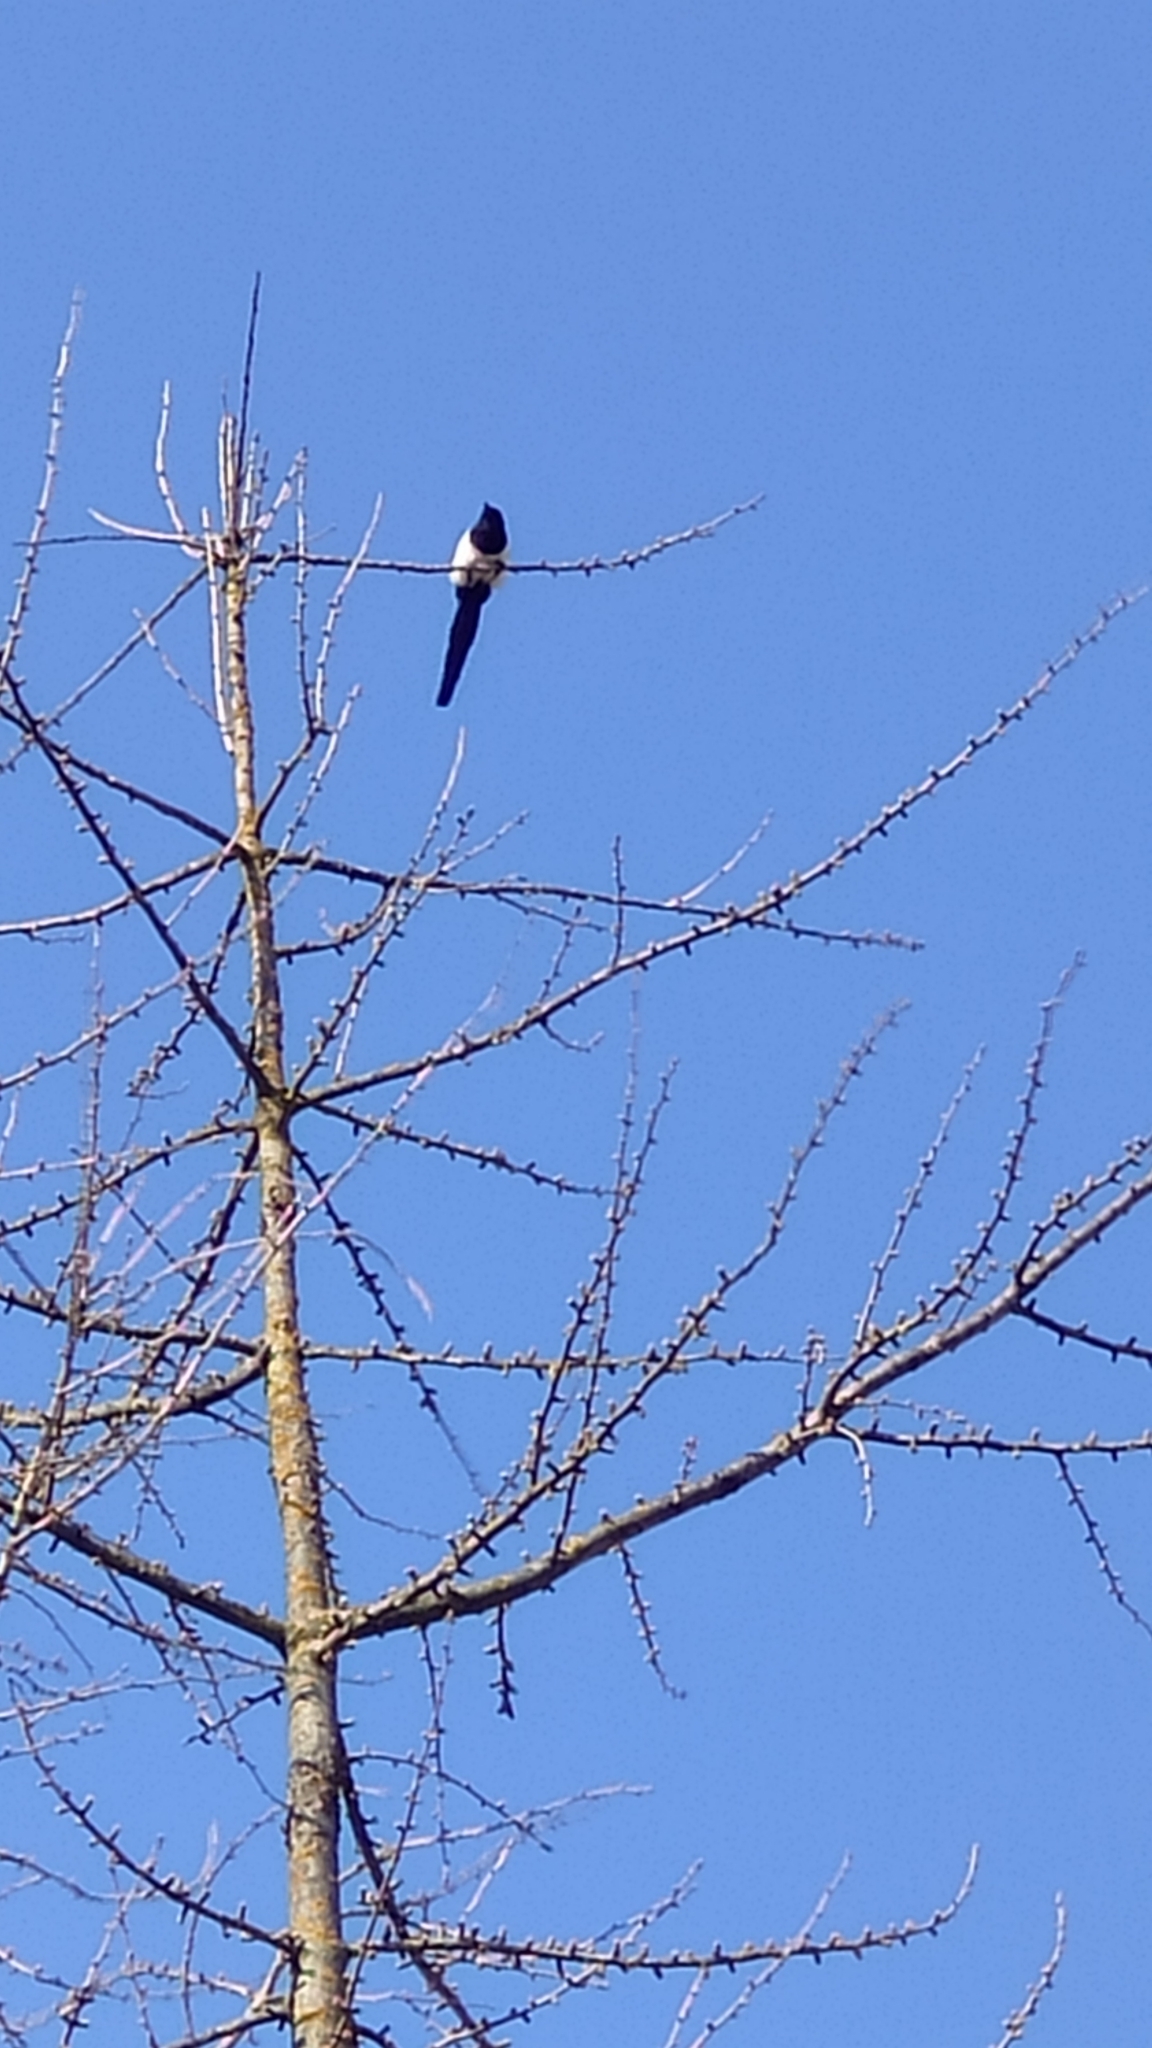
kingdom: Animalia
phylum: Chordata
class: Aves
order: Passeriformes
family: Corvidae
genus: Pica
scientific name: Pica pica
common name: Eurasian magpie
